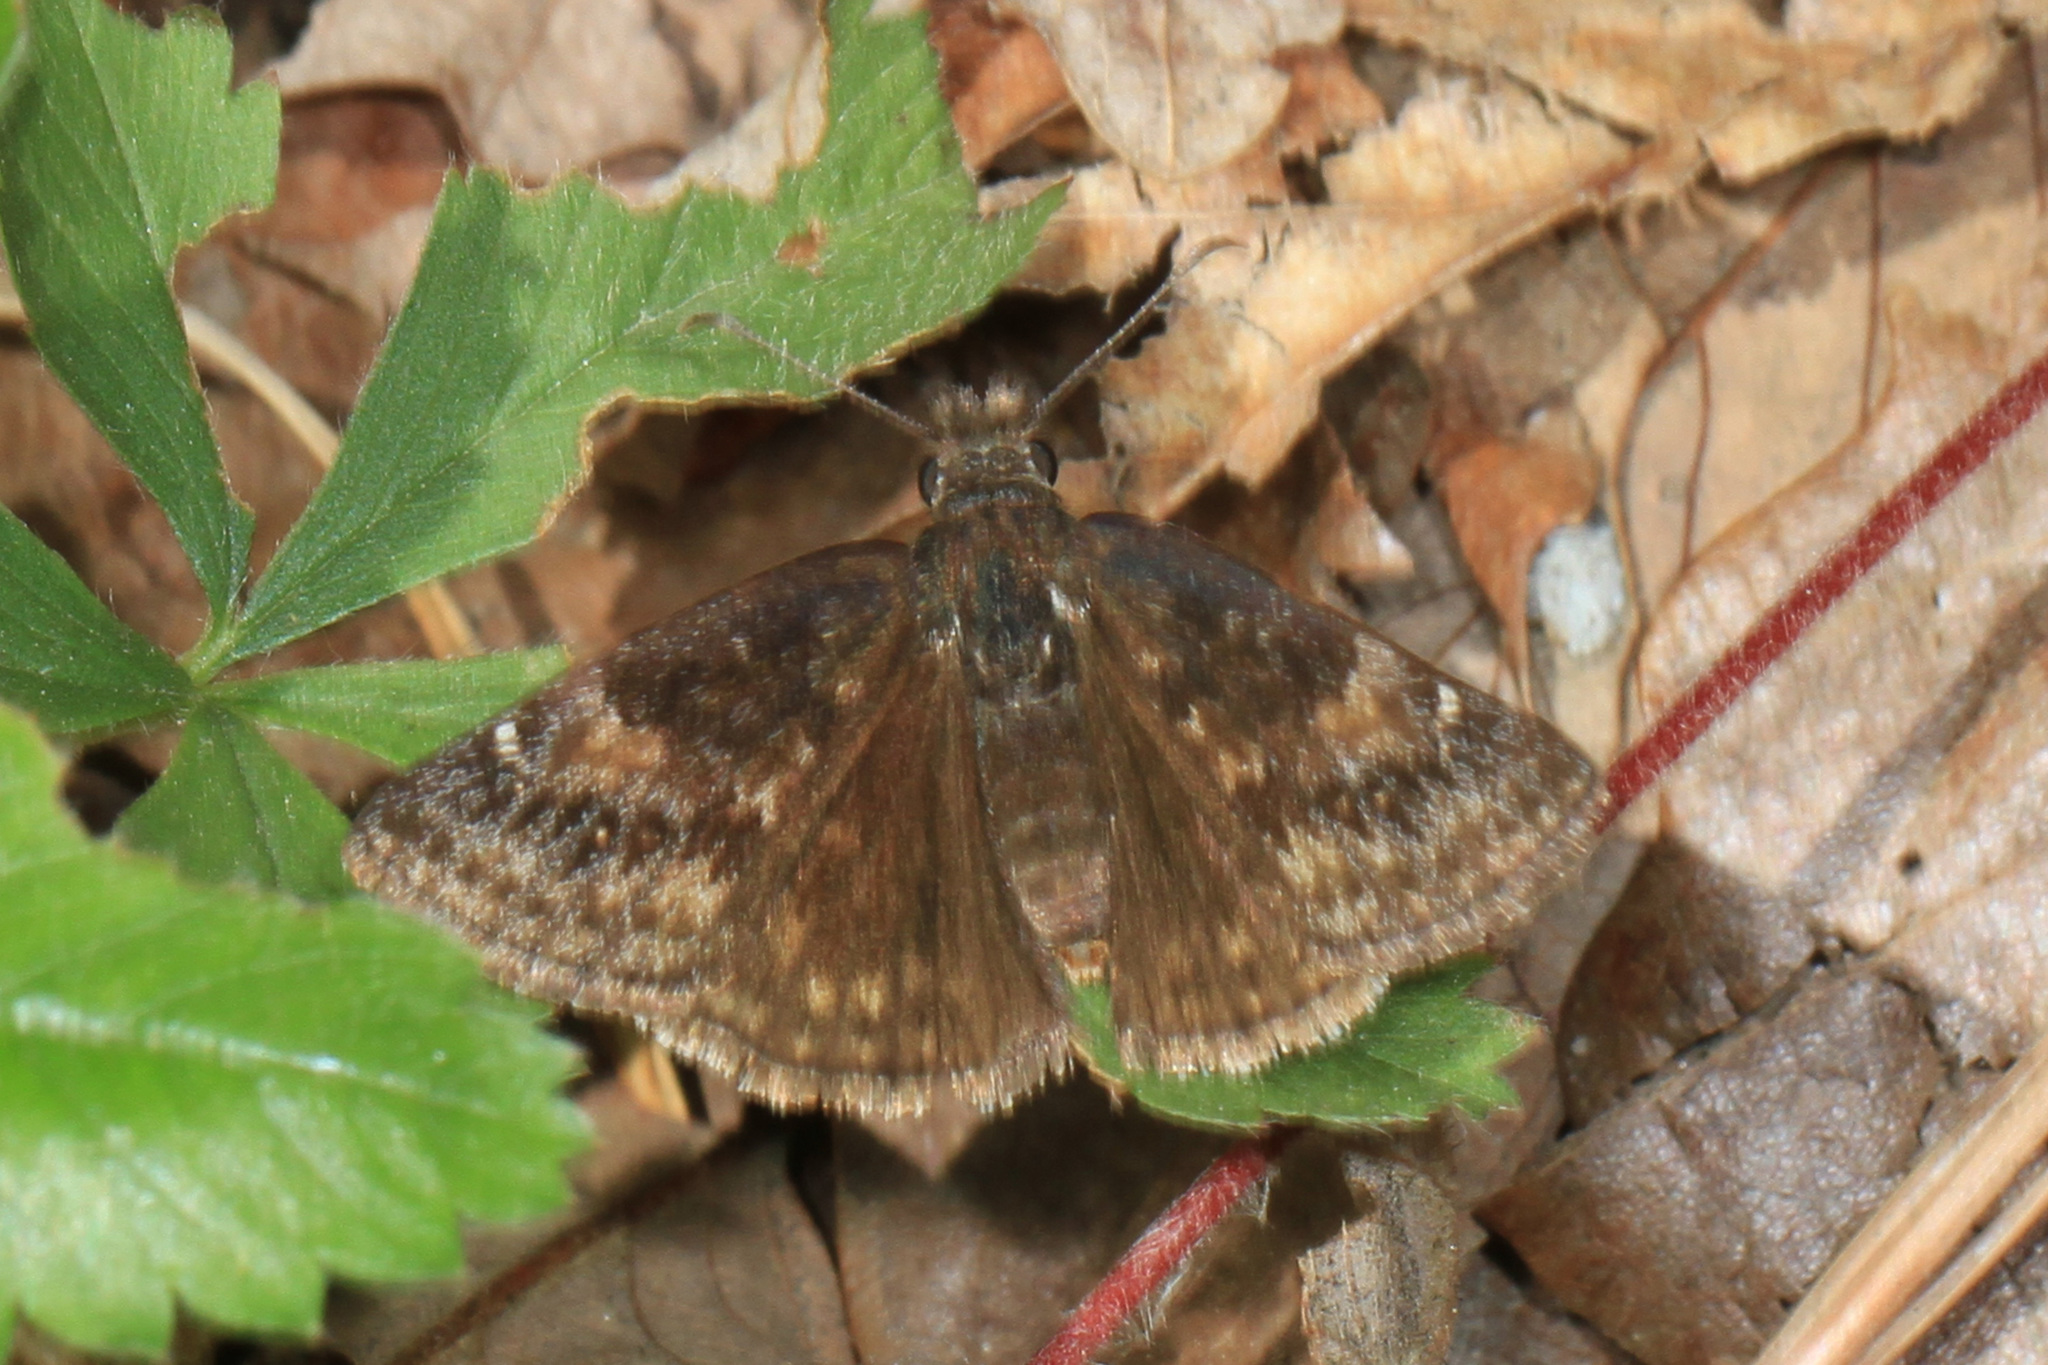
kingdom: Animalia
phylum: Arthropoda
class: Insecta
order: Lepidoptera
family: Hesperiidae
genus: Erynnis
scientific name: Erynnis baptisiae
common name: Wild indigo duskywing
